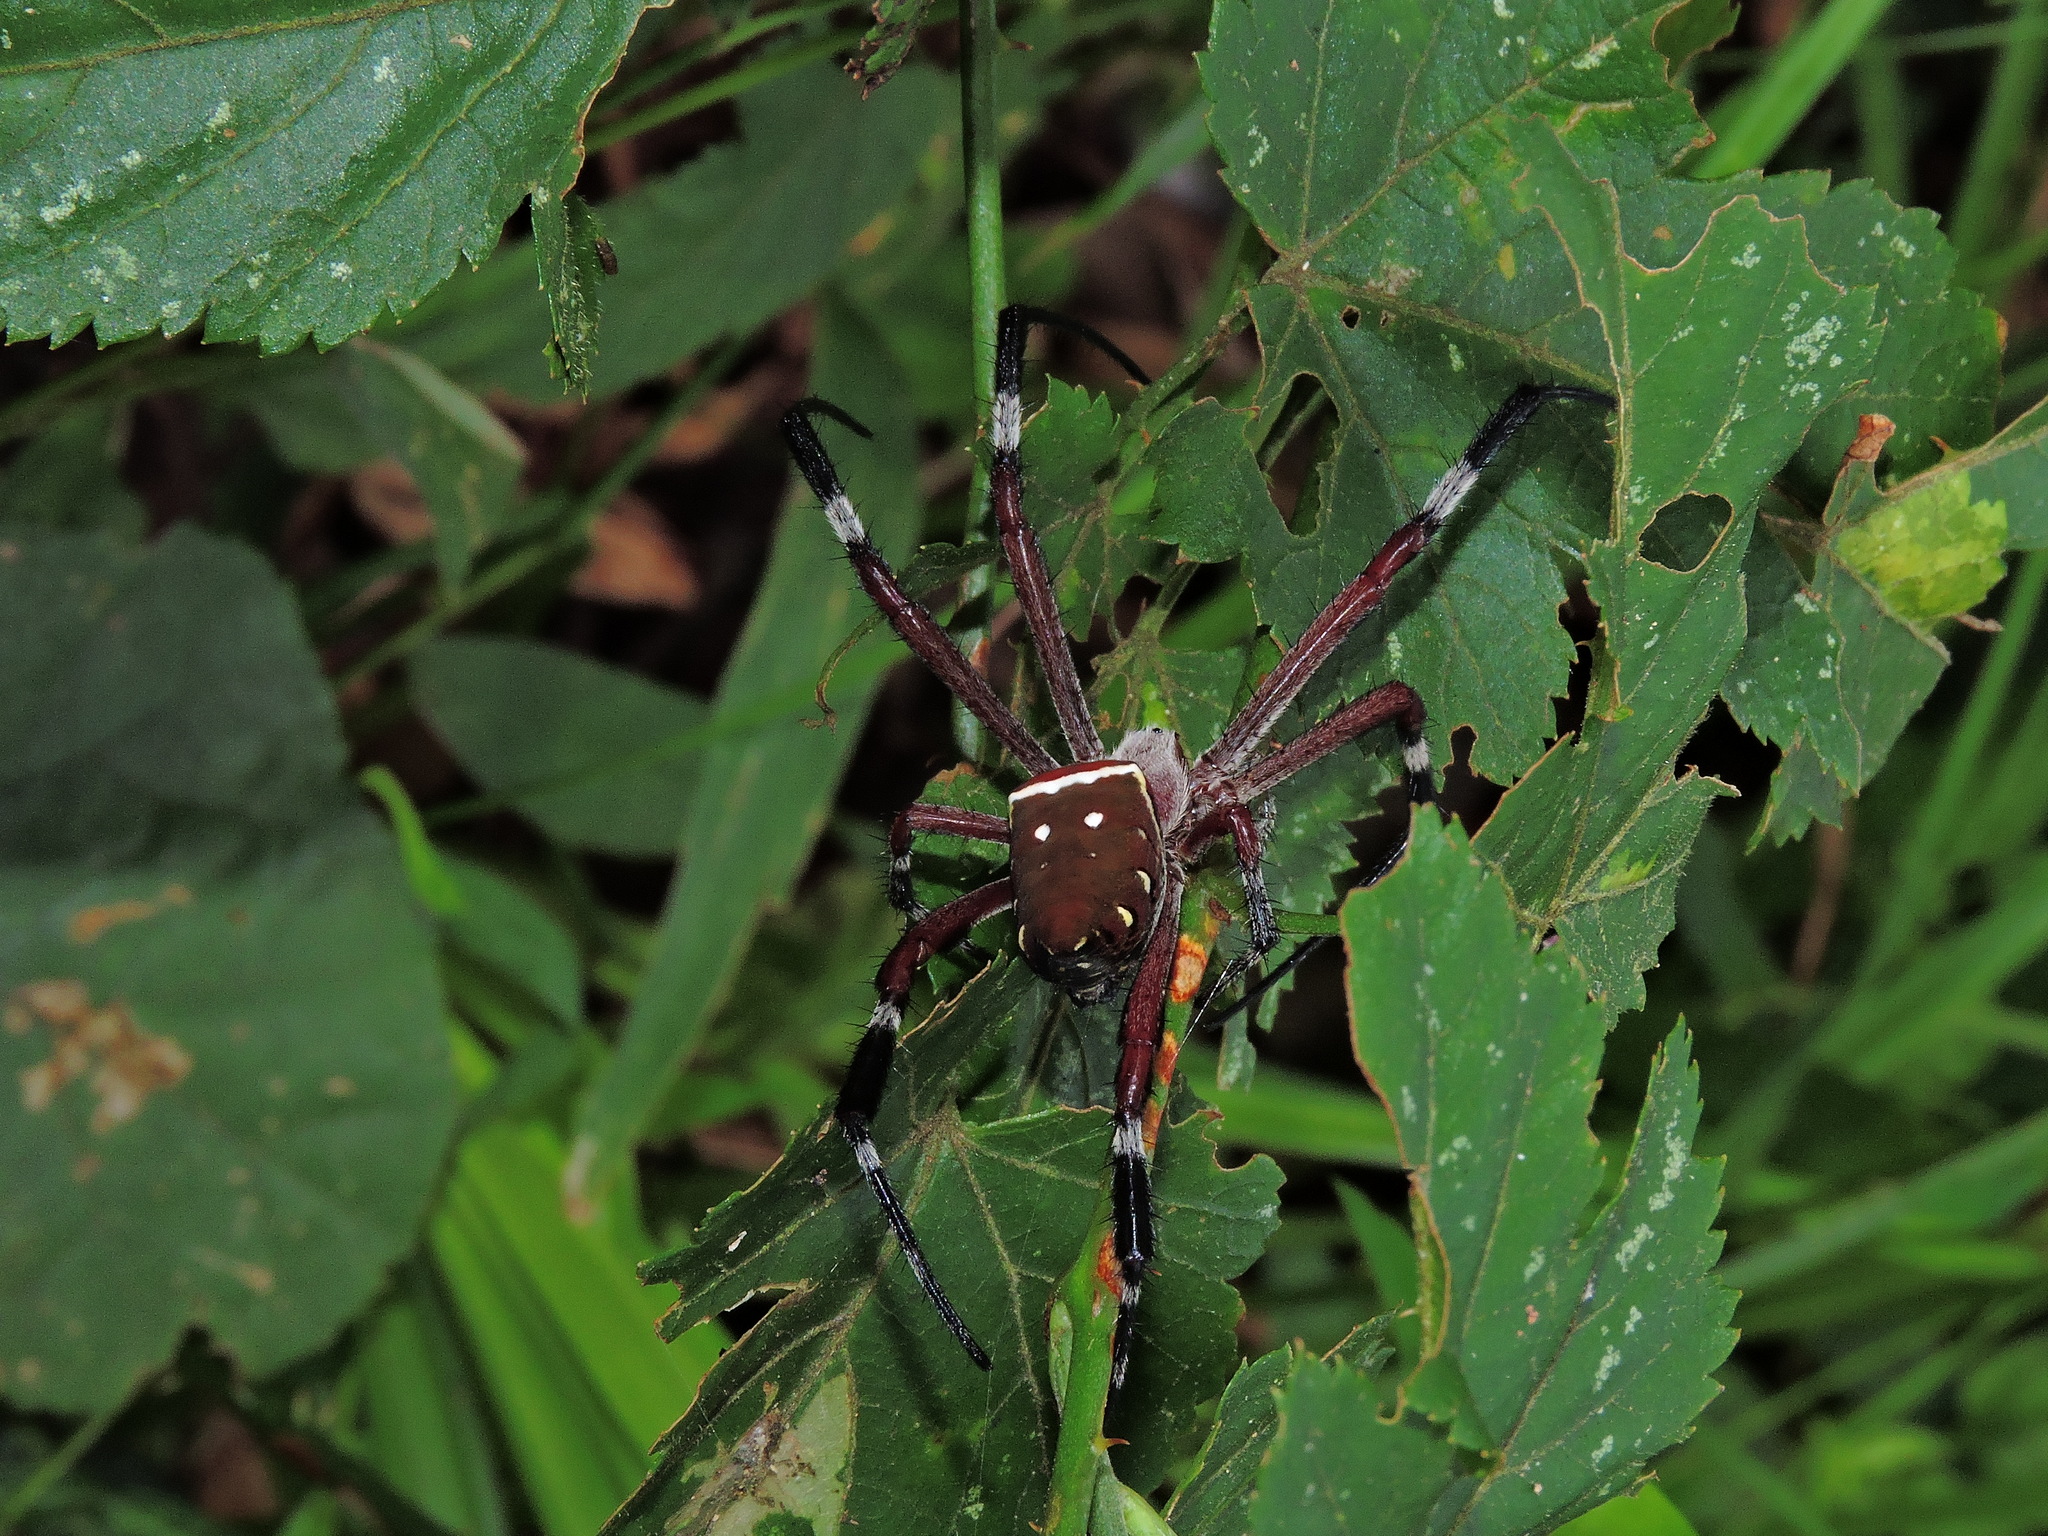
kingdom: Animalia
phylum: Arthropoda
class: Arachnida
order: Araneae
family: Araneidae
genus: Argiope
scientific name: Argiope ocula
